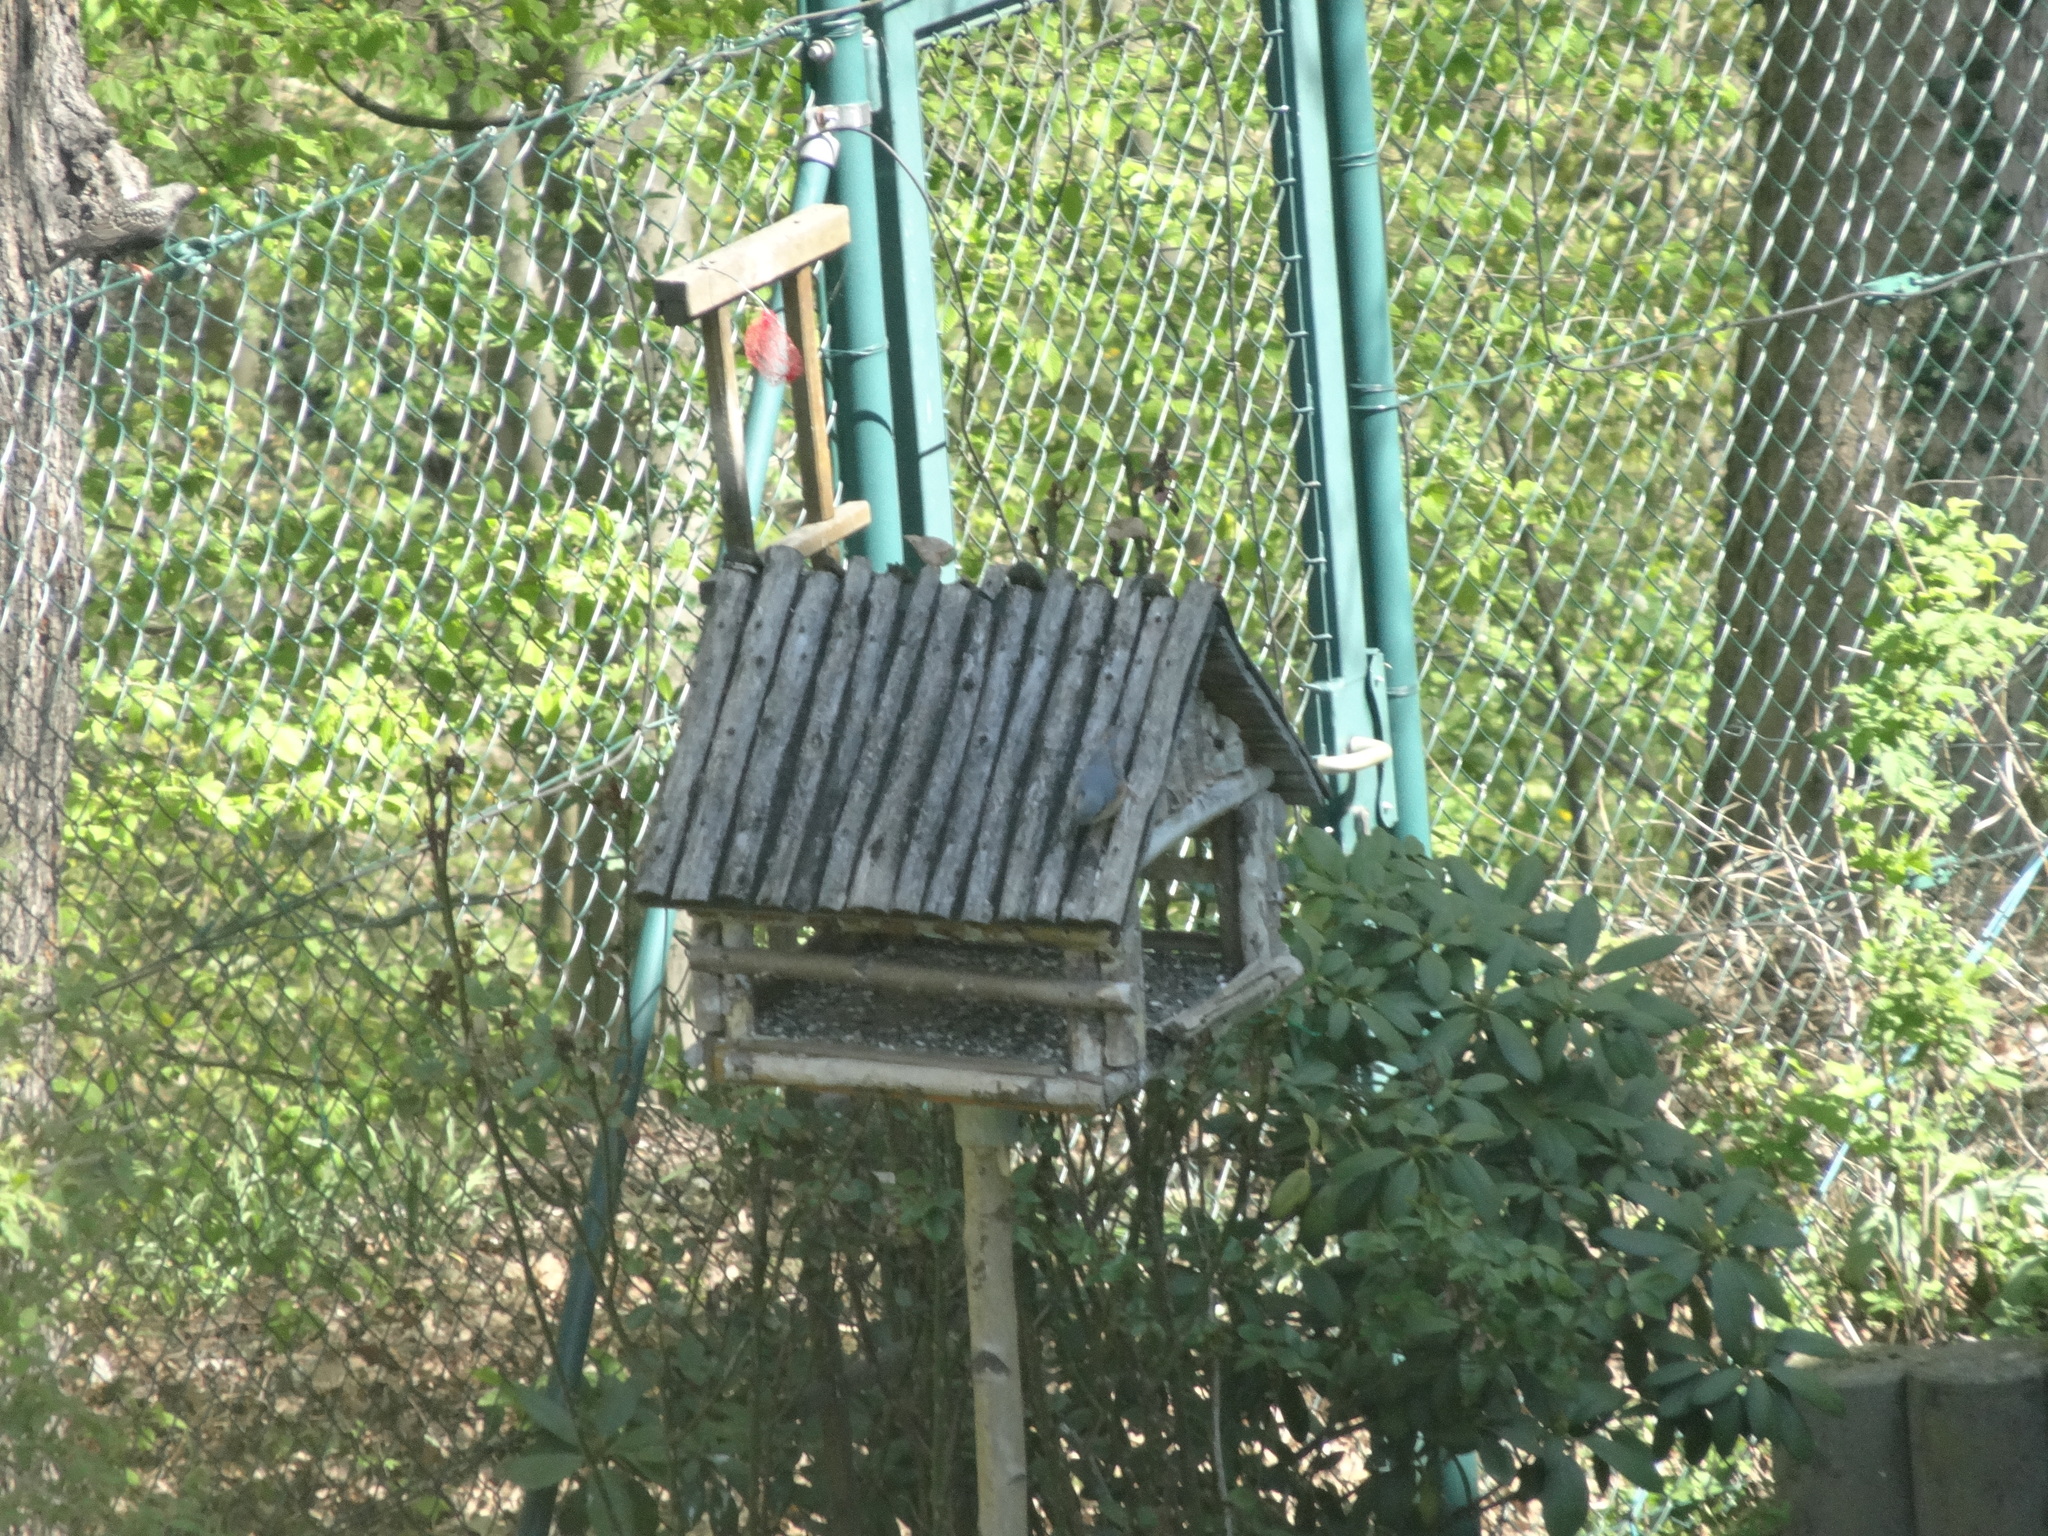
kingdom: Animalia
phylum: Chordata
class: Aves
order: Passeriformes
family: Sittidae
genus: Sitta
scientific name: Sitta europaea
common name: Eurasian nuthatch
